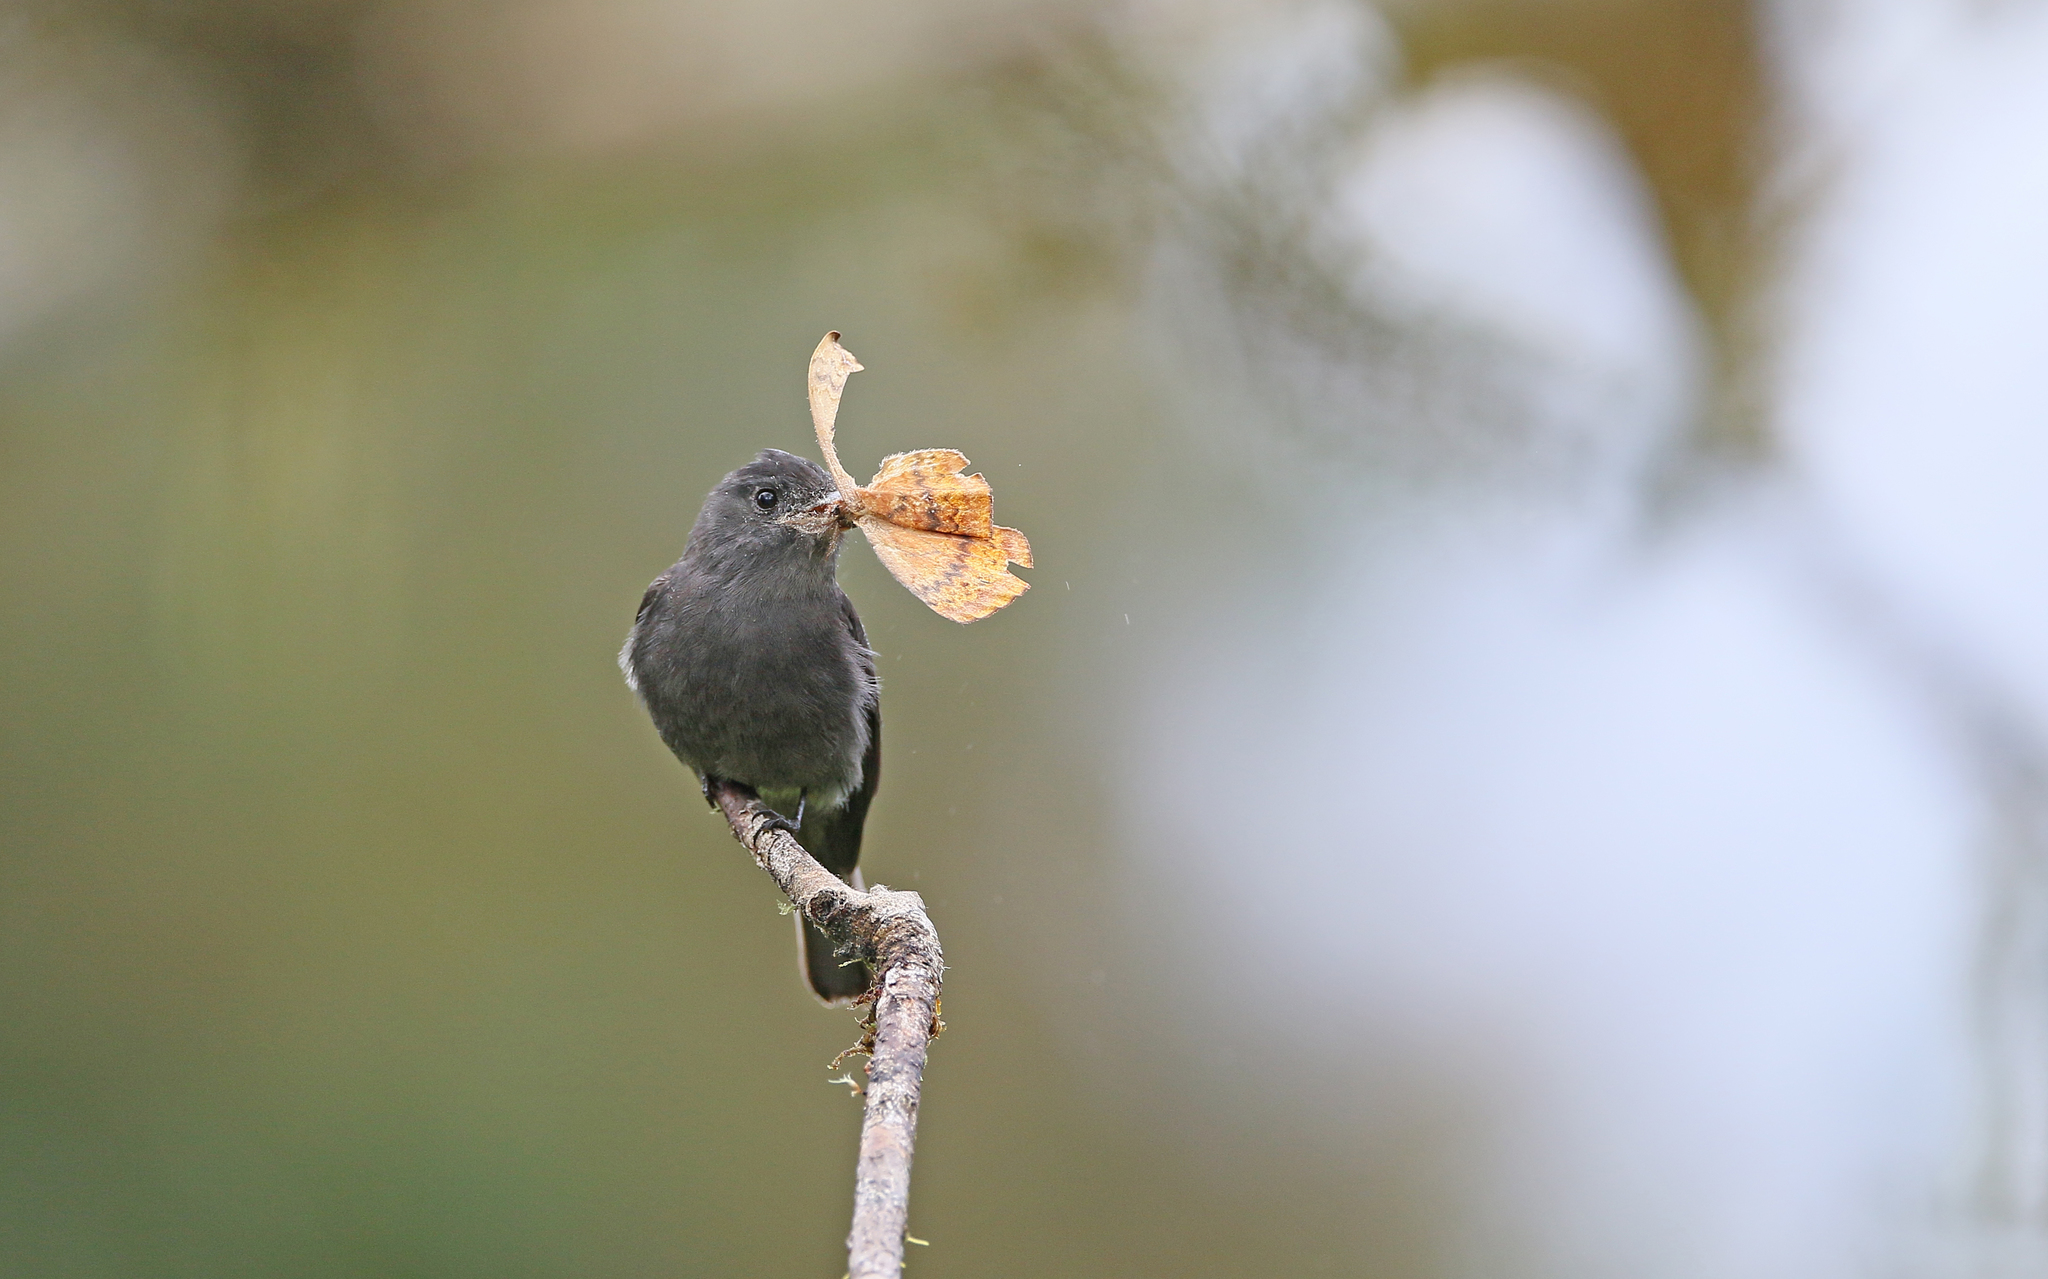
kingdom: Animalia
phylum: Chordata
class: Aves
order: Passeriformes
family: Tyrannidae
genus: Contopus
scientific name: Contopus fumigatus
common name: Smoke-colored pewee
